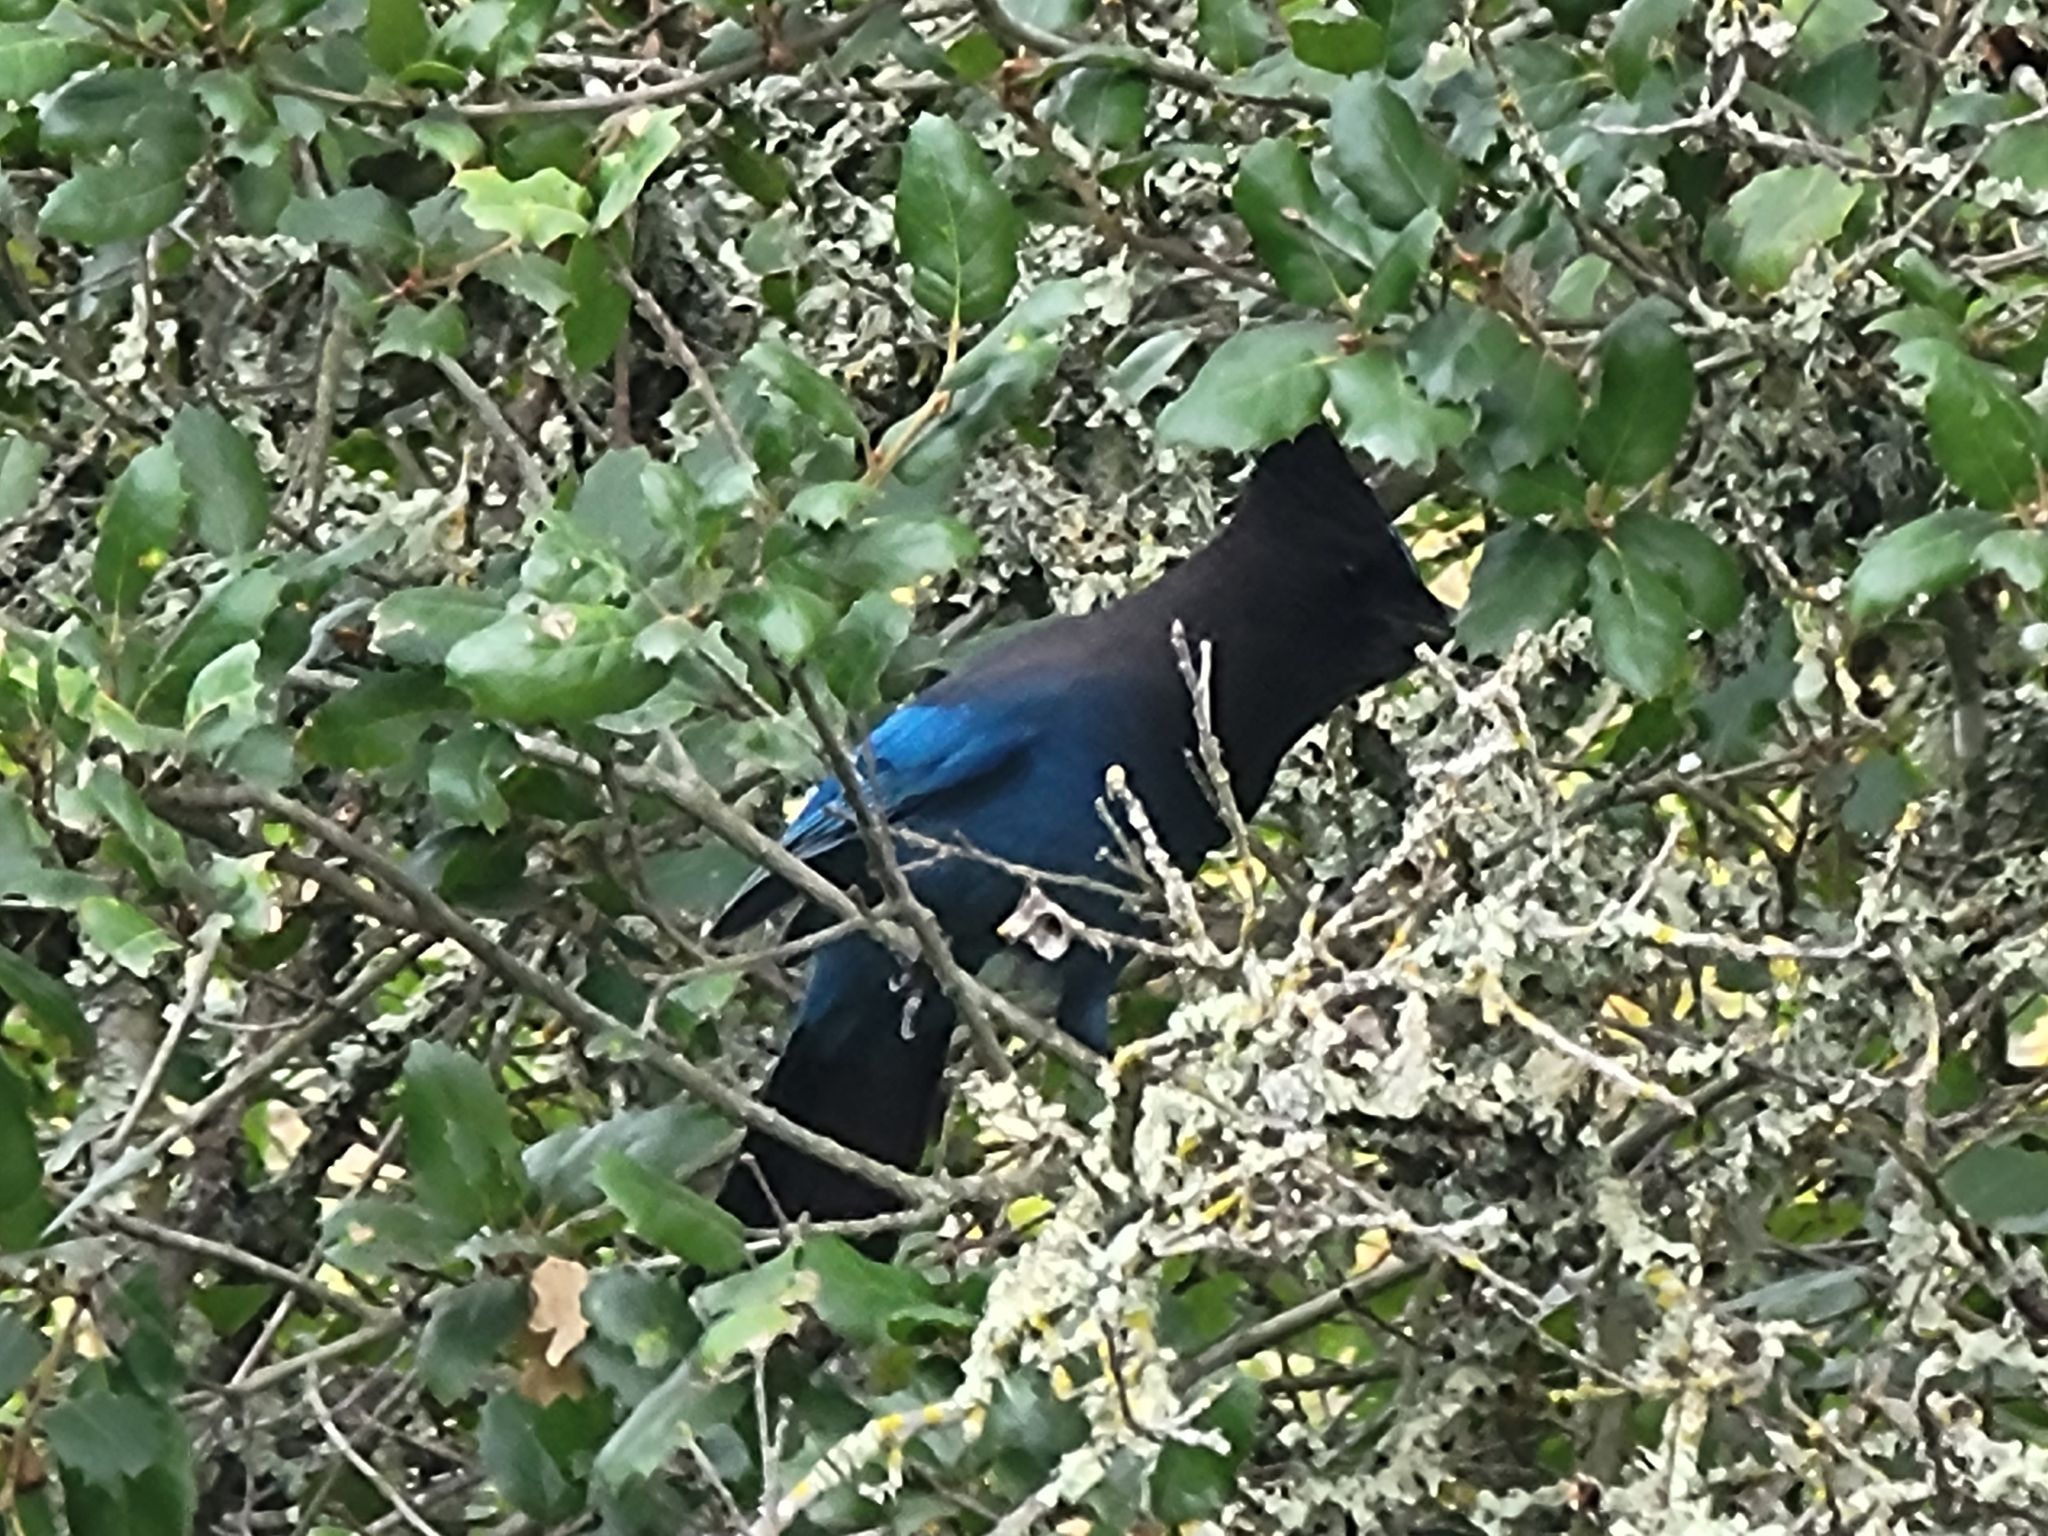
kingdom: Animalia
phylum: Chordata
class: Aves
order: Passeriformes
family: Corvidae
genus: Cyanocitta
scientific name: Cyanocitta stelleri
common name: Steller's jay
